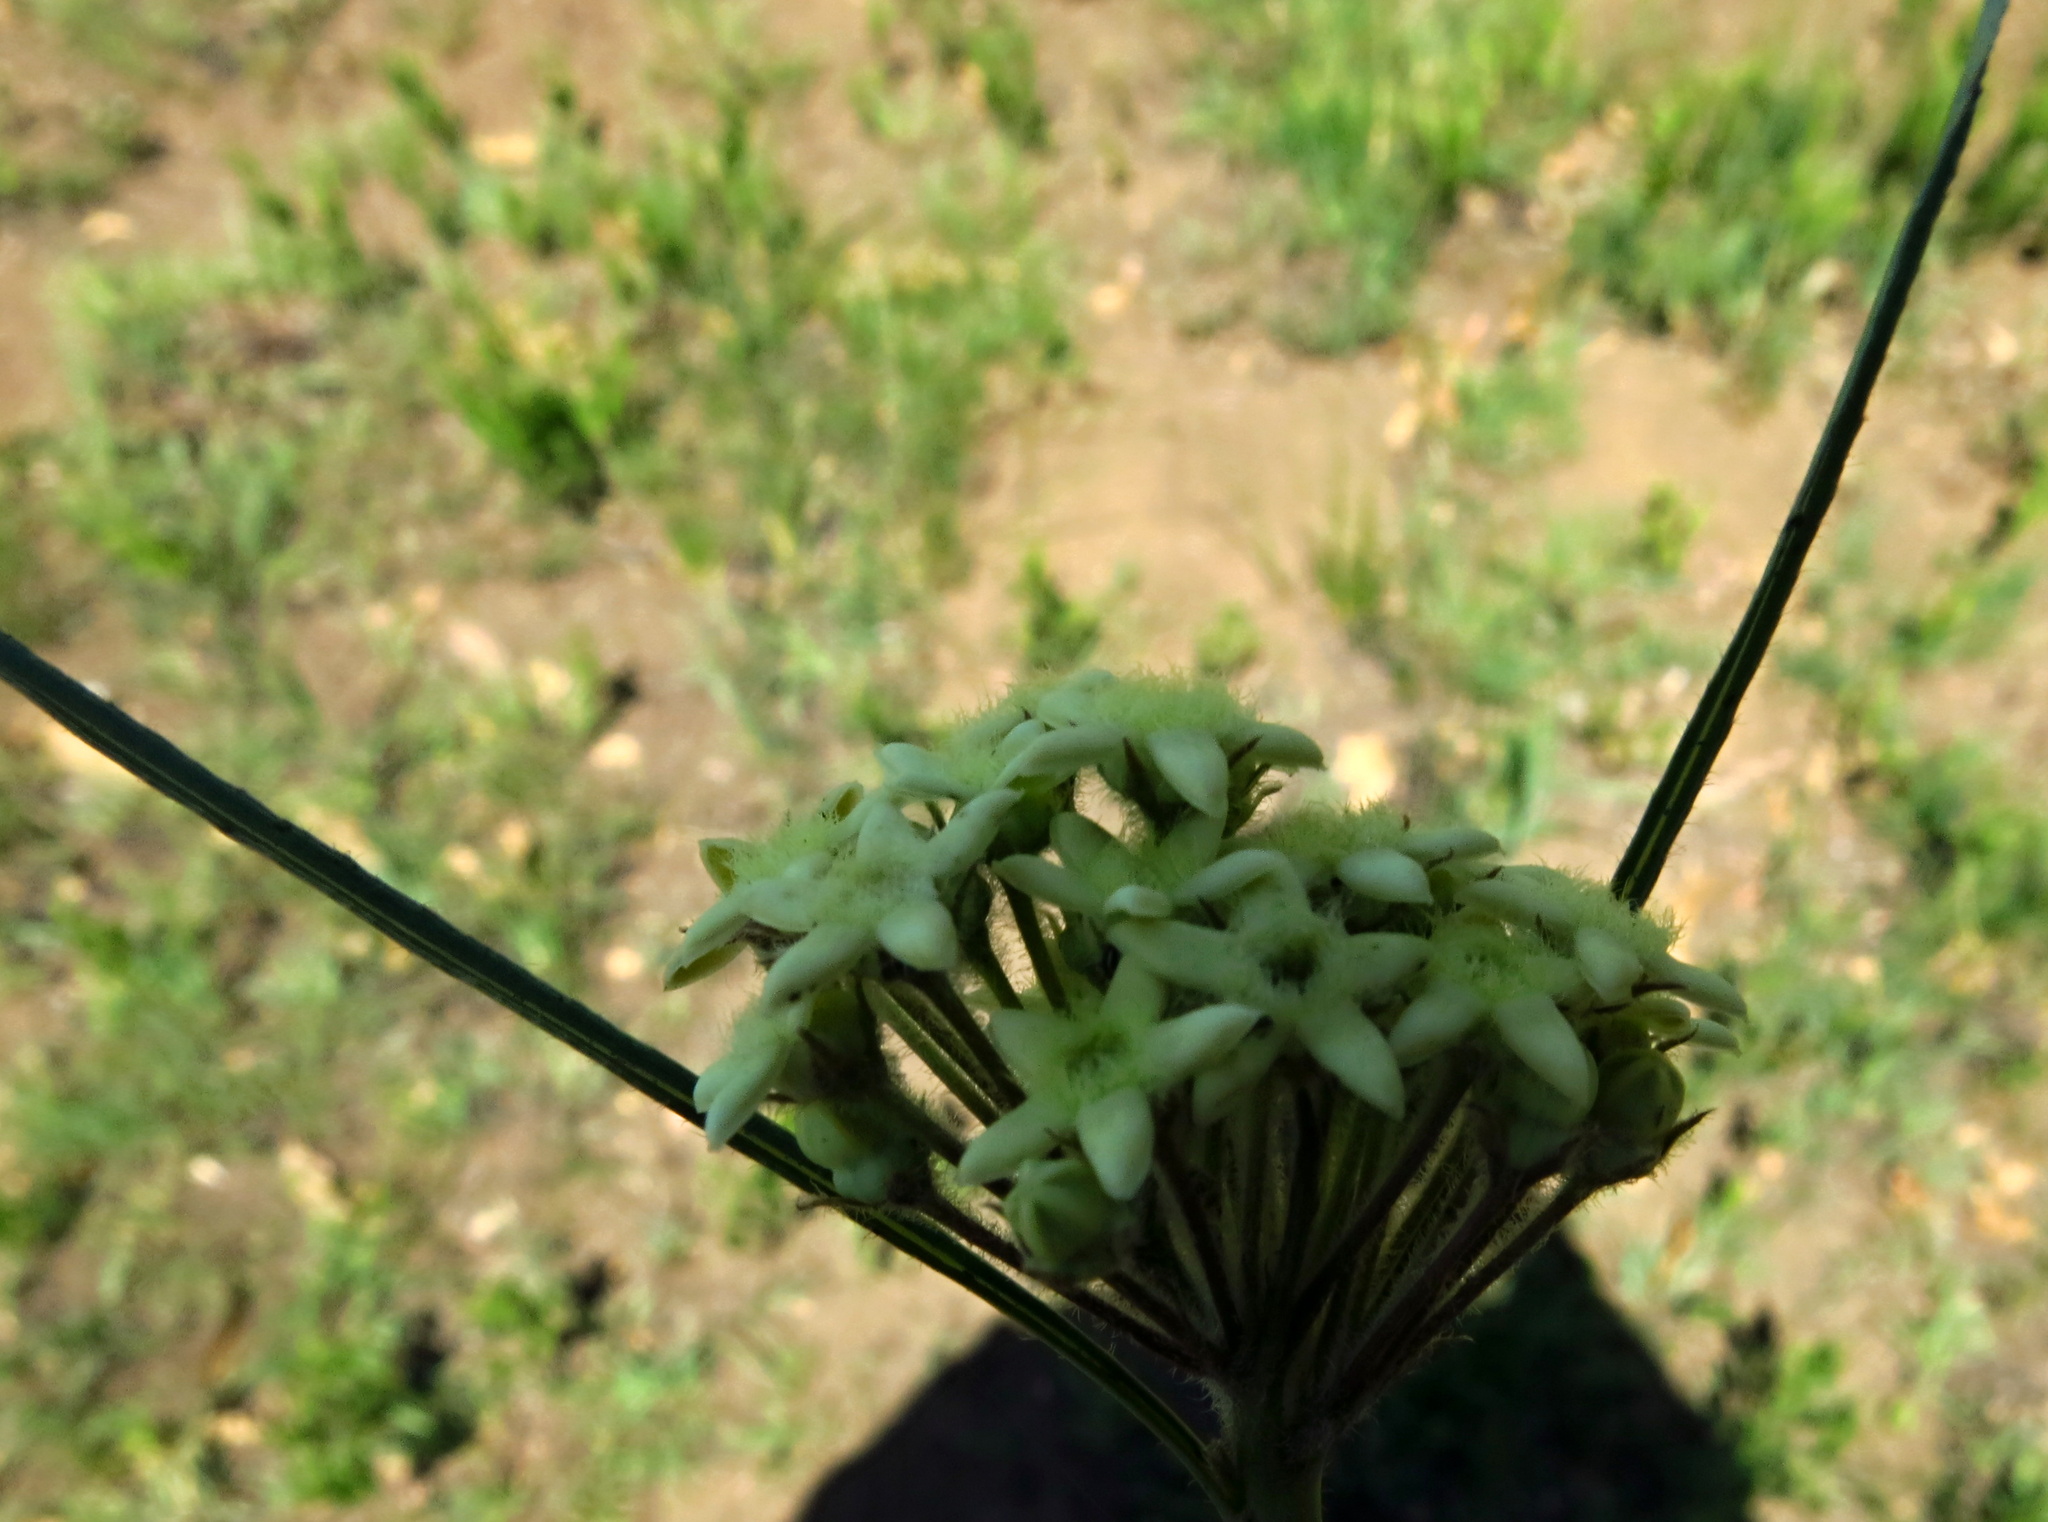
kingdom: Plantae
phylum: Tracheophyta
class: Magnoliopsida
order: Gentianales
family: Apocynaceae
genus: Sisyranthus
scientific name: Sisyranthus trichostomus
